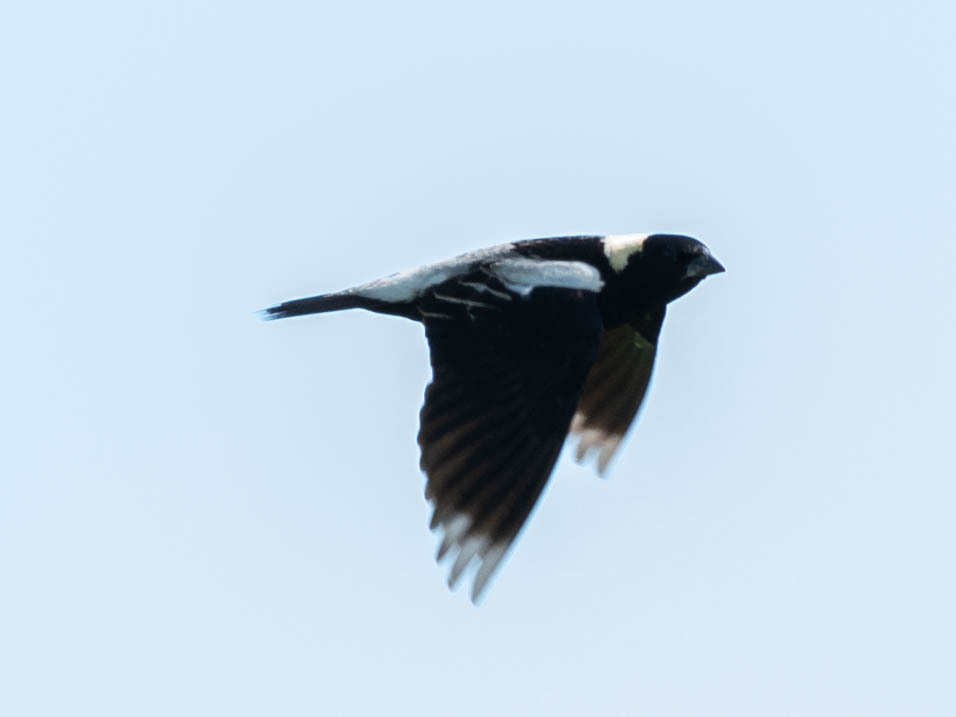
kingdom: Animalia
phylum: Chordata
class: Aves
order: Passeriformes
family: Icteridae
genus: Dolichonyx
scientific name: Dolichonyx oryzivorus
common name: Bobolink
